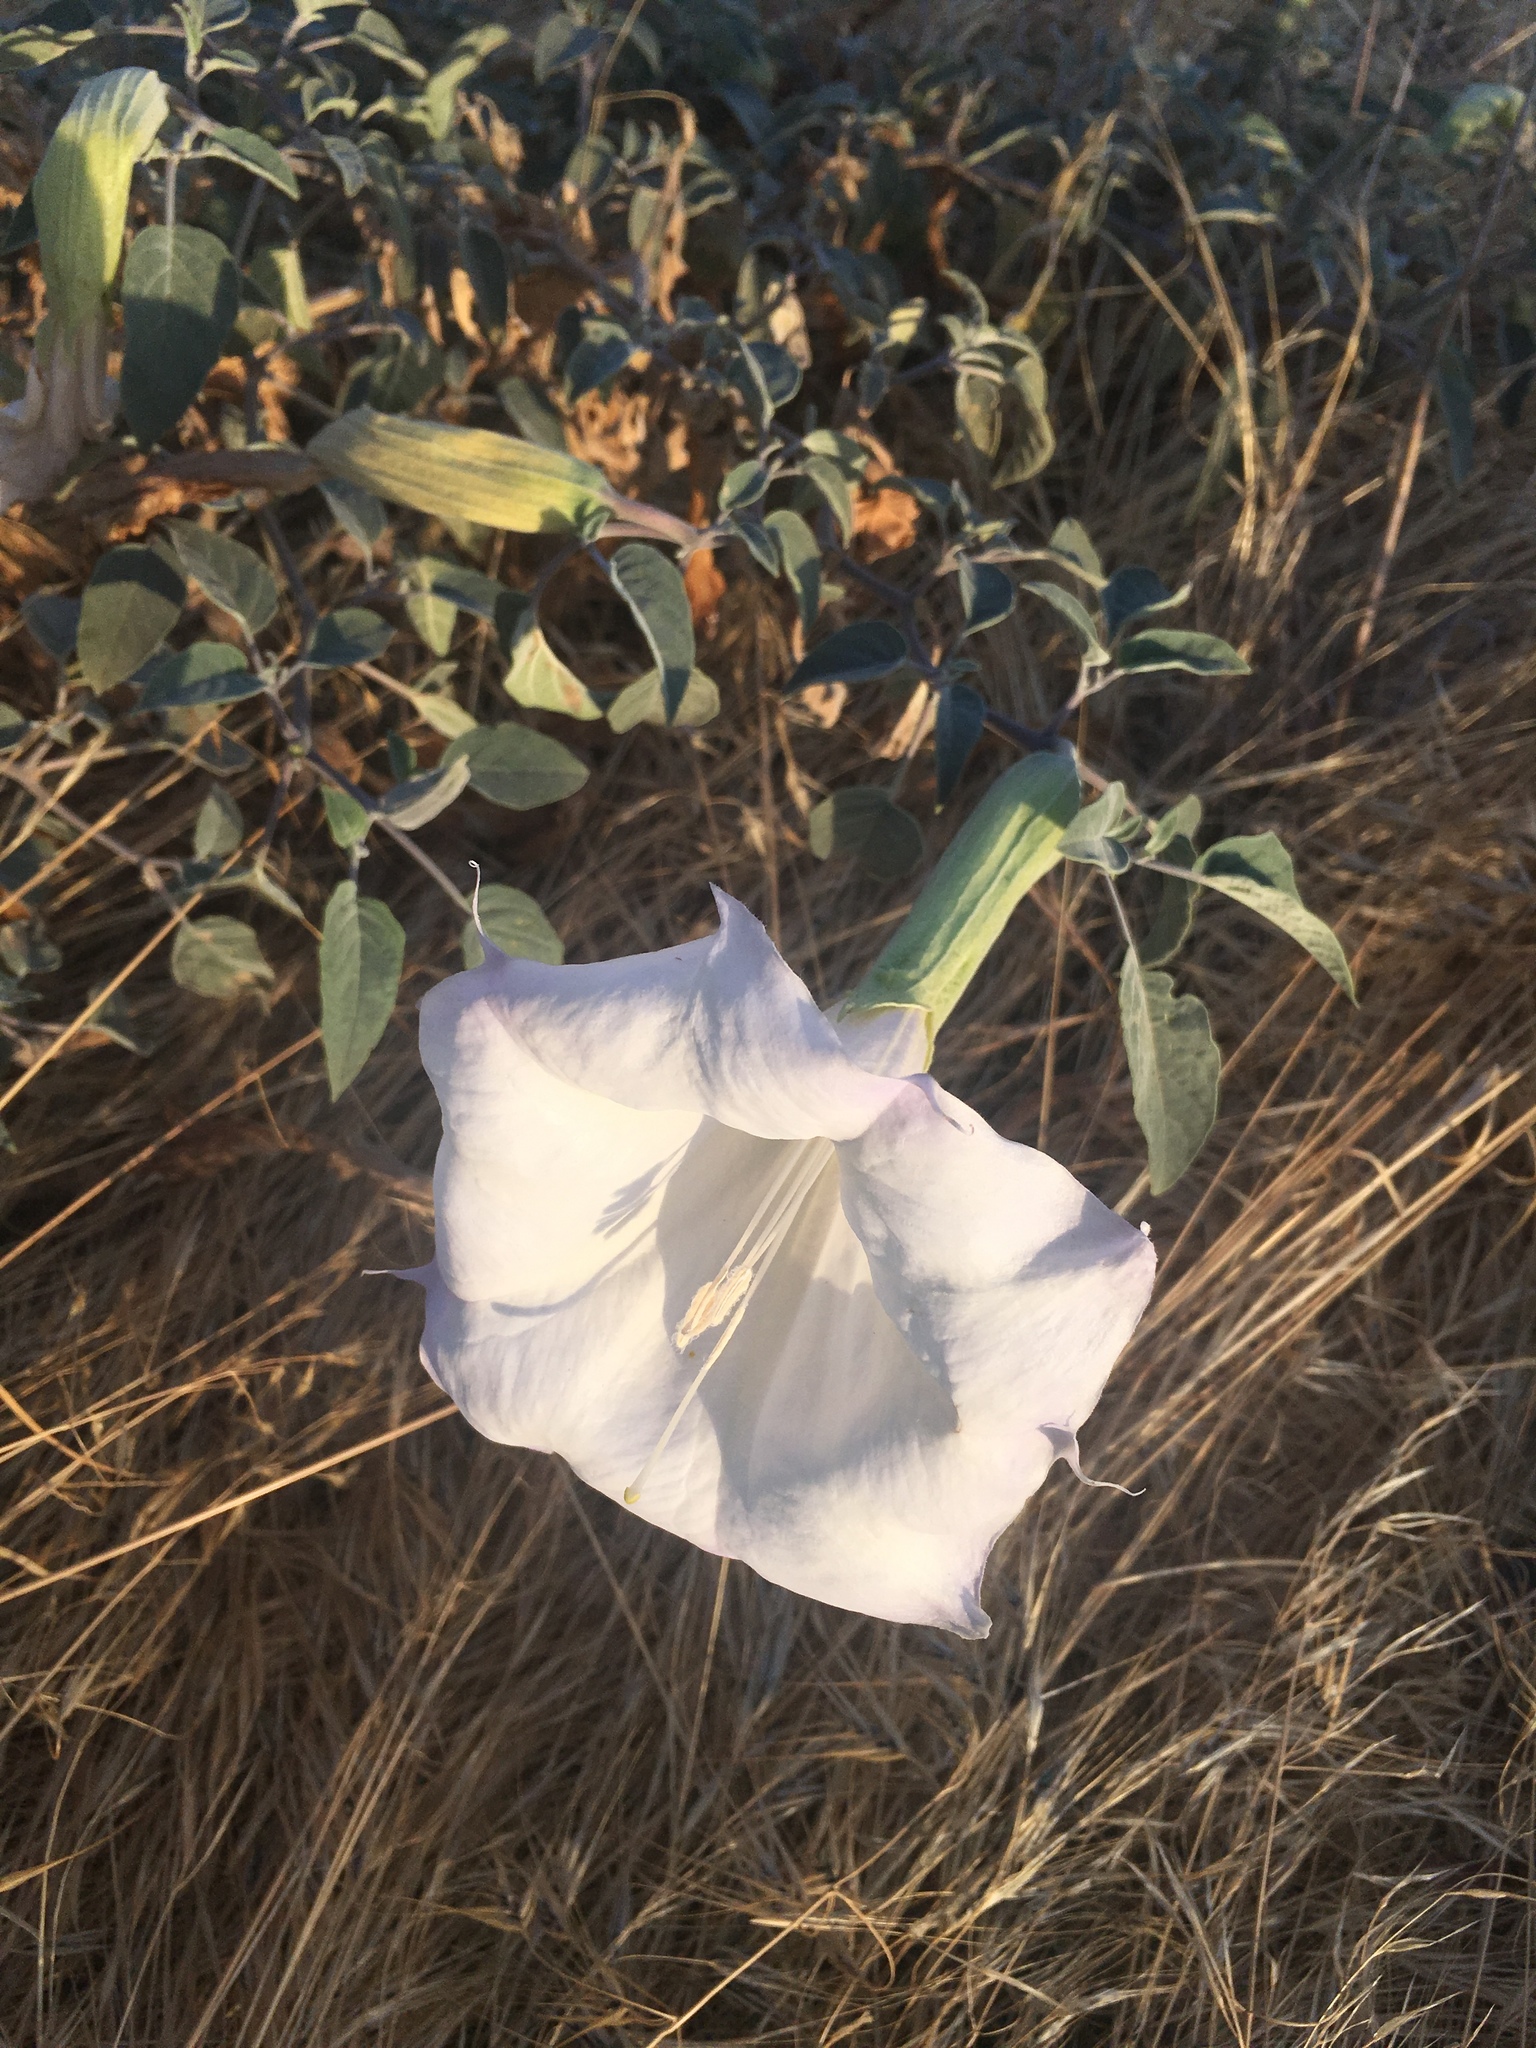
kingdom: Plantae
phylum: Tracheophyta
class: Magnoliopsida
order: Solanales
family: Solanaceae
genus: Datura
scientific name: Datura wrightii
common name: Sacred thorn-apple
